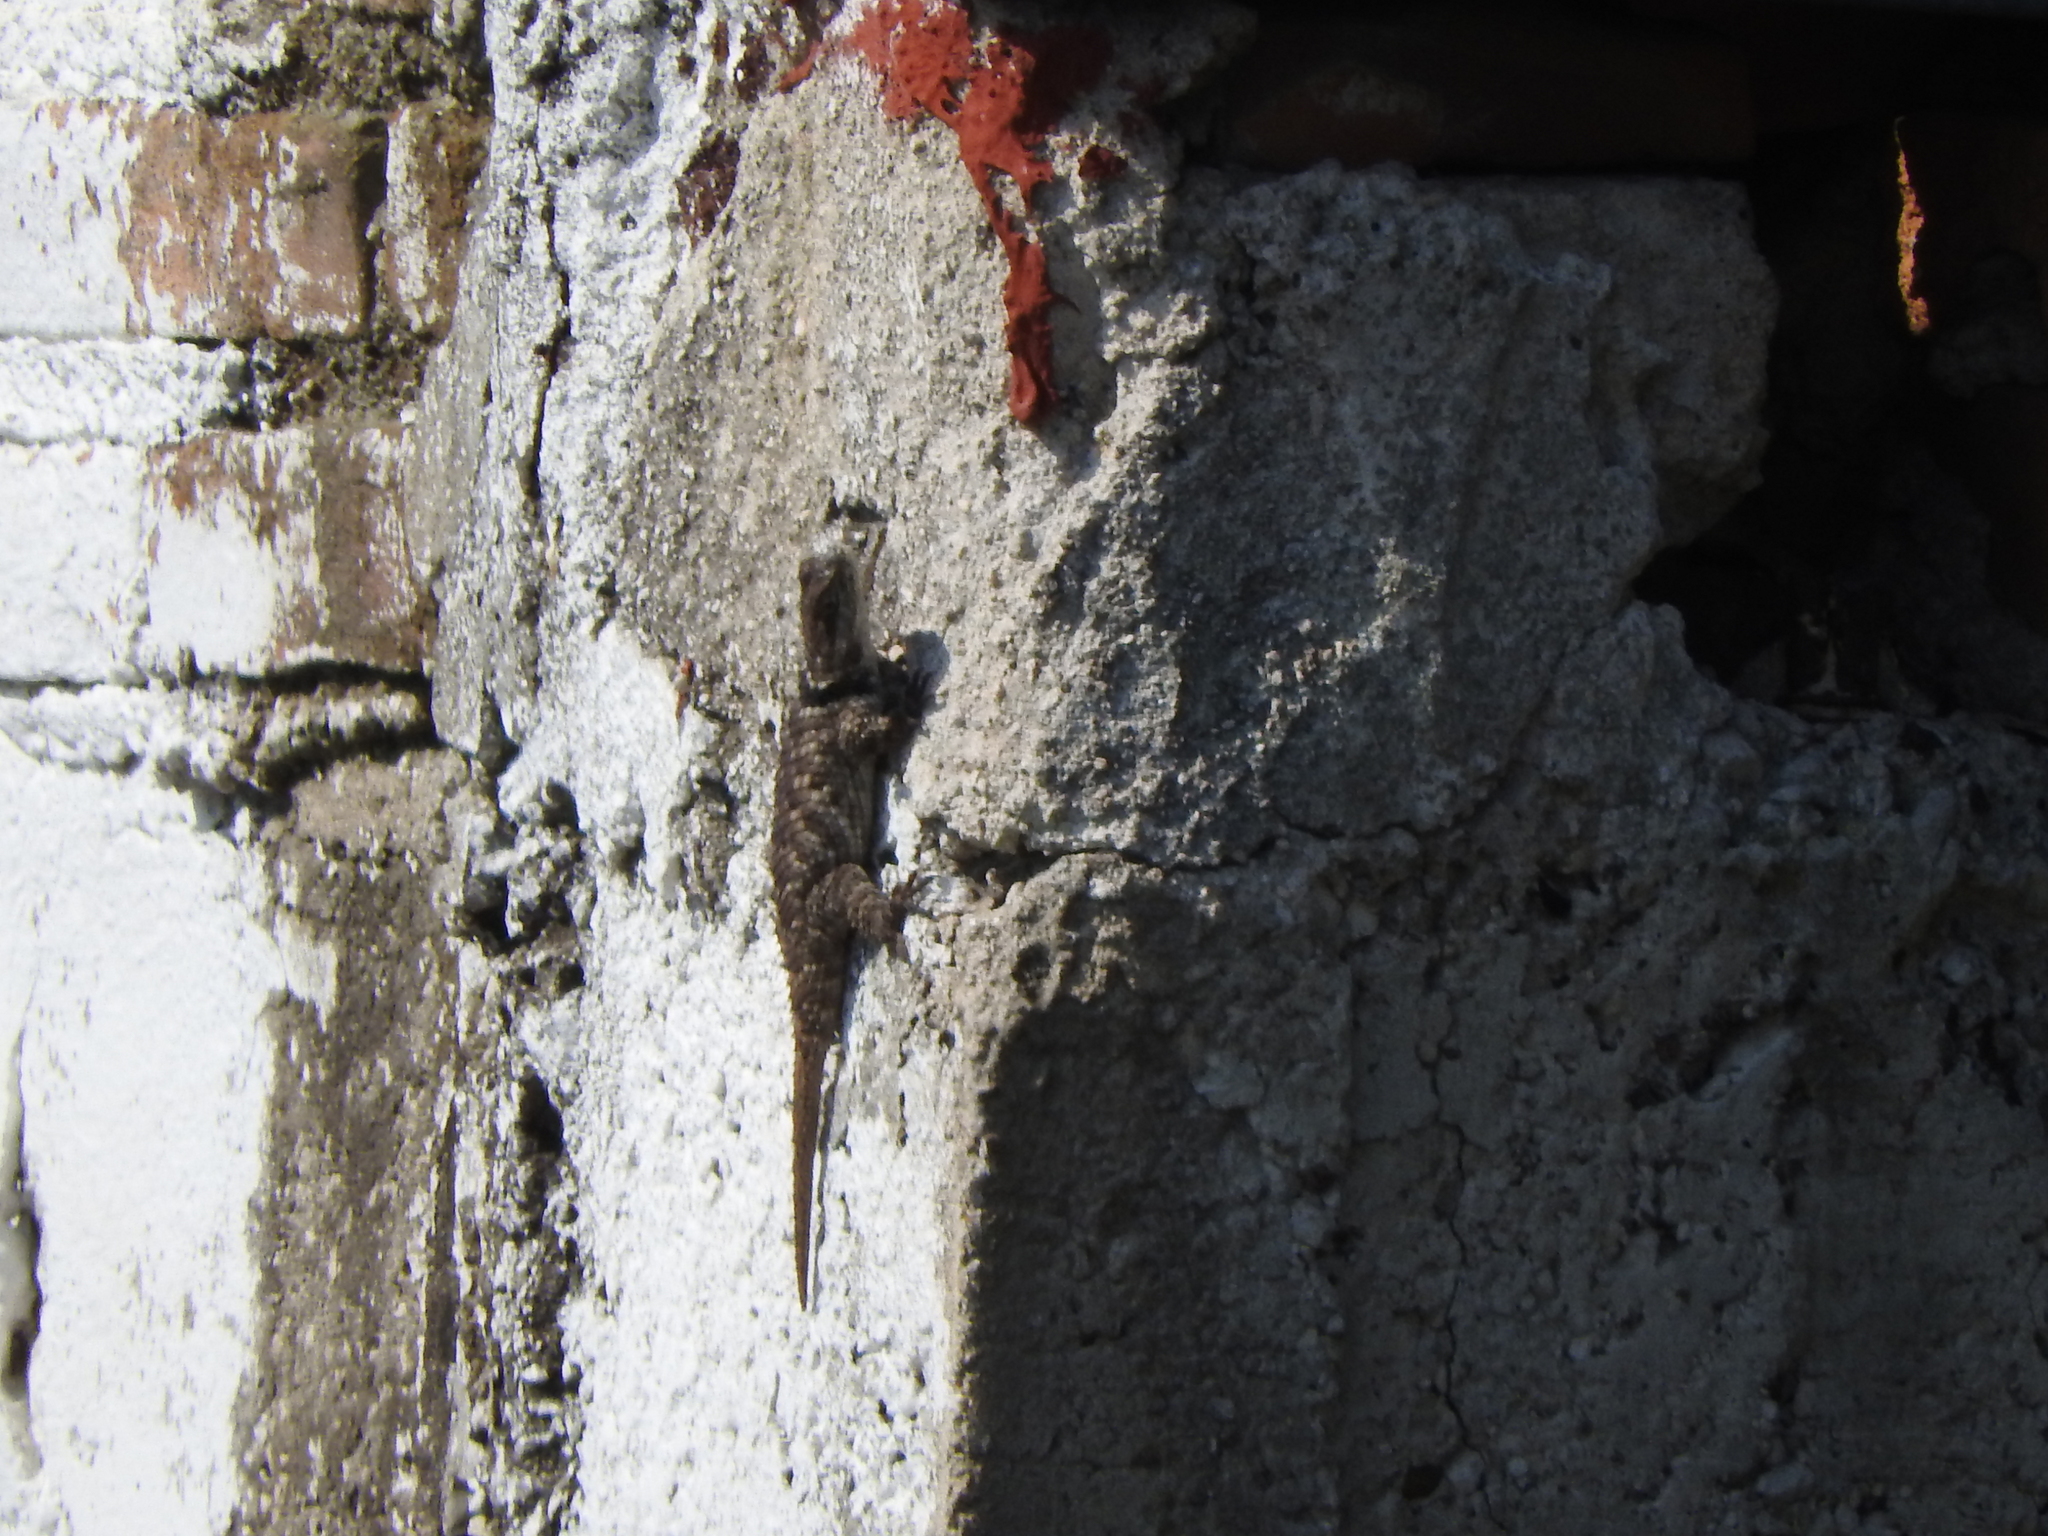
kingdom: Animalia
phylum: Chordata
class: Squamata
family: Phrynosomatidae
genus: Sceloporus
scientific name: Sceloporus torquatus
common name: Central plateau torquate lizard [melanogaster]
